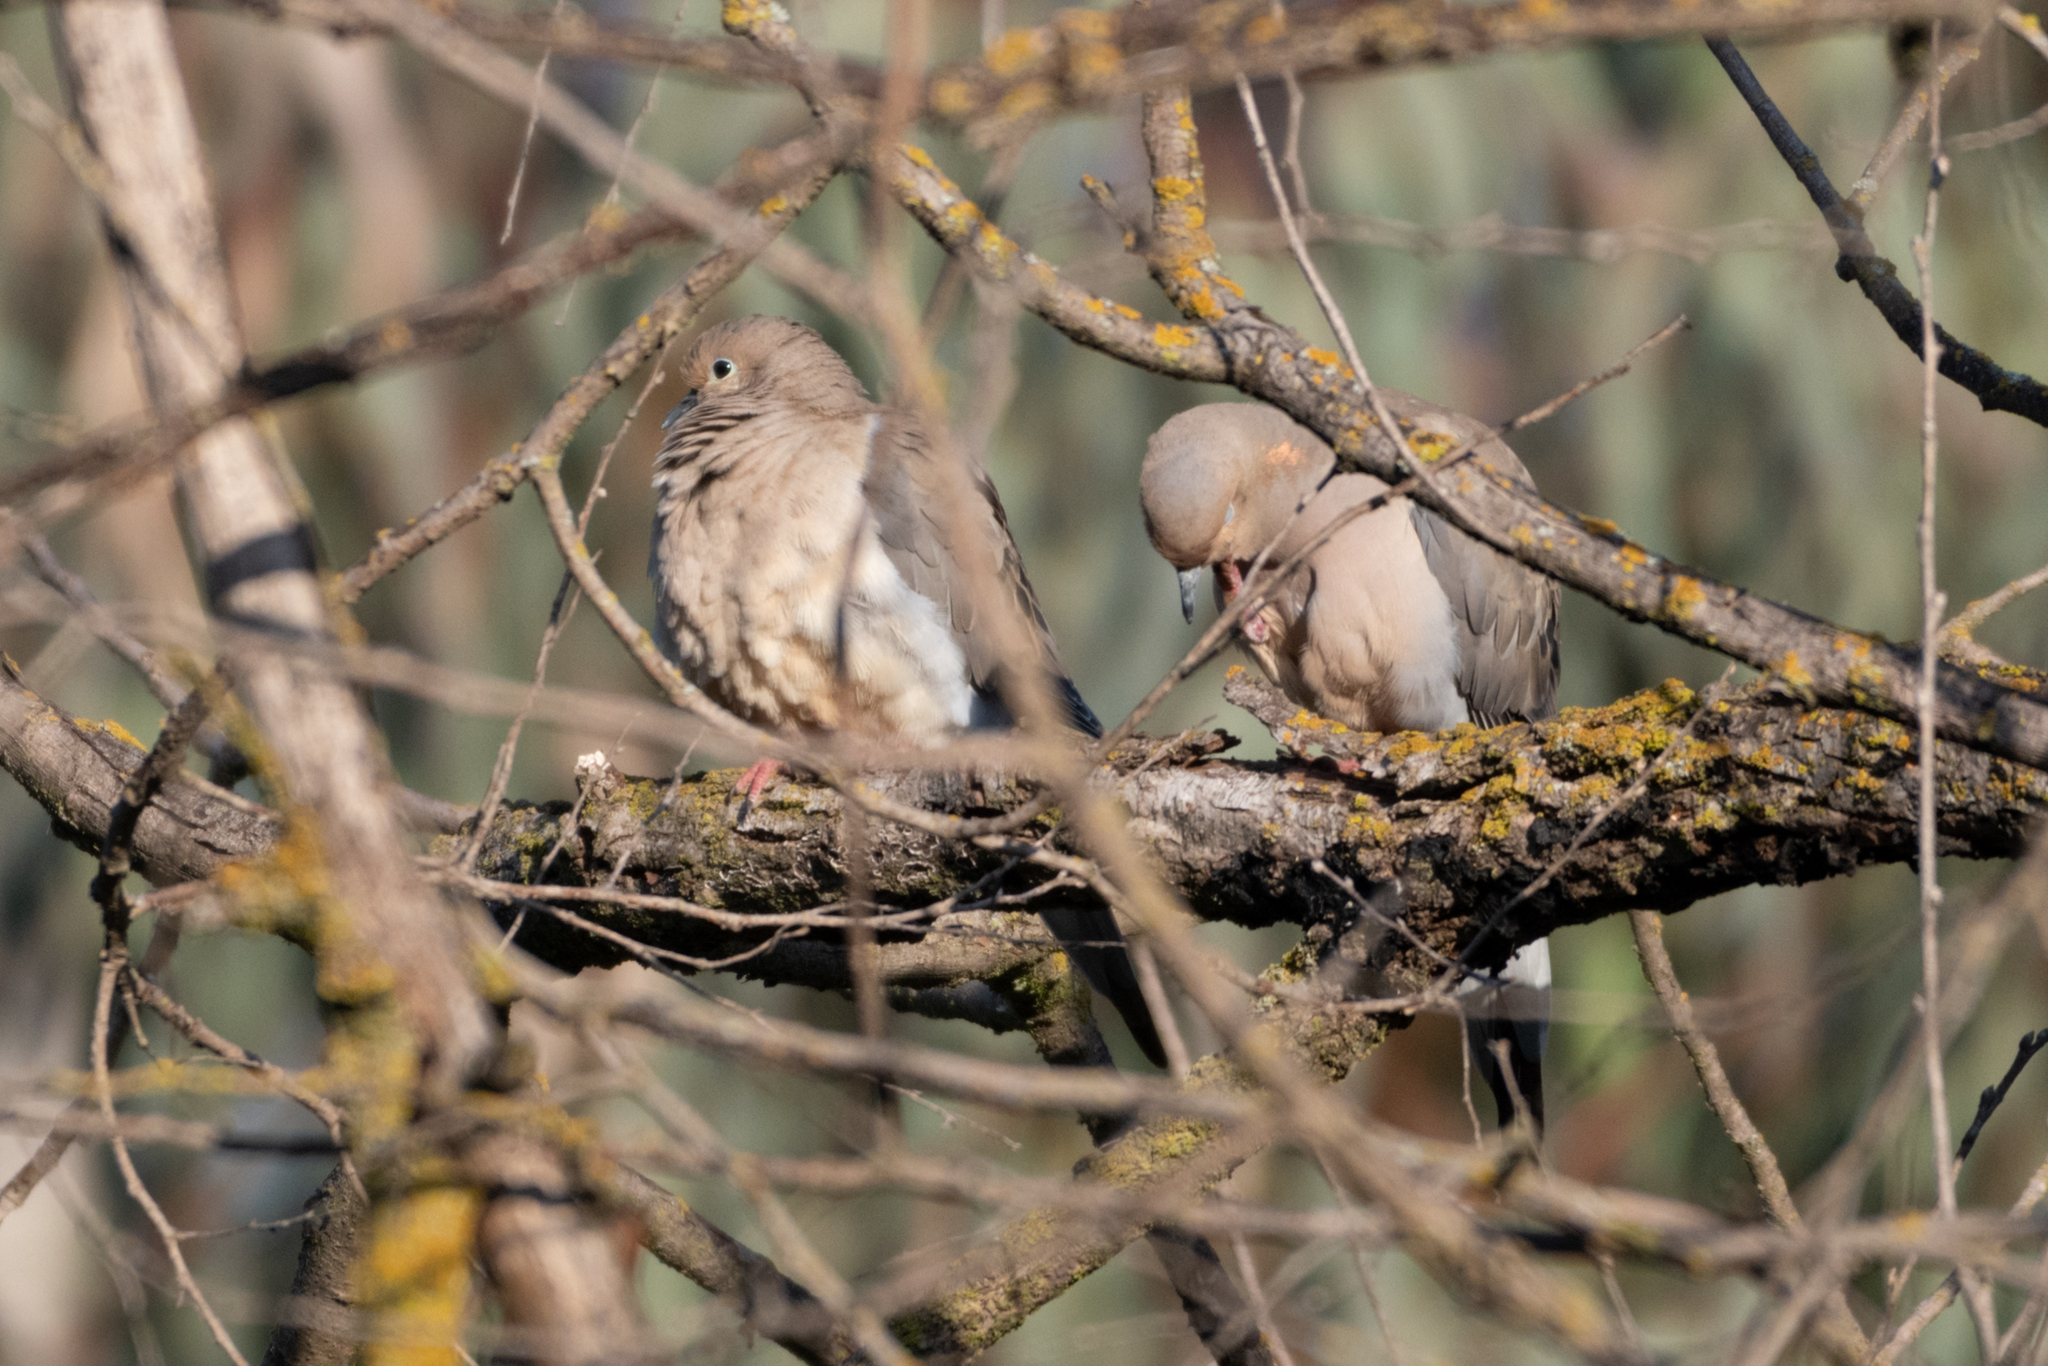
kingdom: Animalia
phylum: Chordata
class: Aves
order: Columbiformes
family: Columbidae
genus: Zenaida
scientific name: Zenaida macroura
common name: Mourning dove
